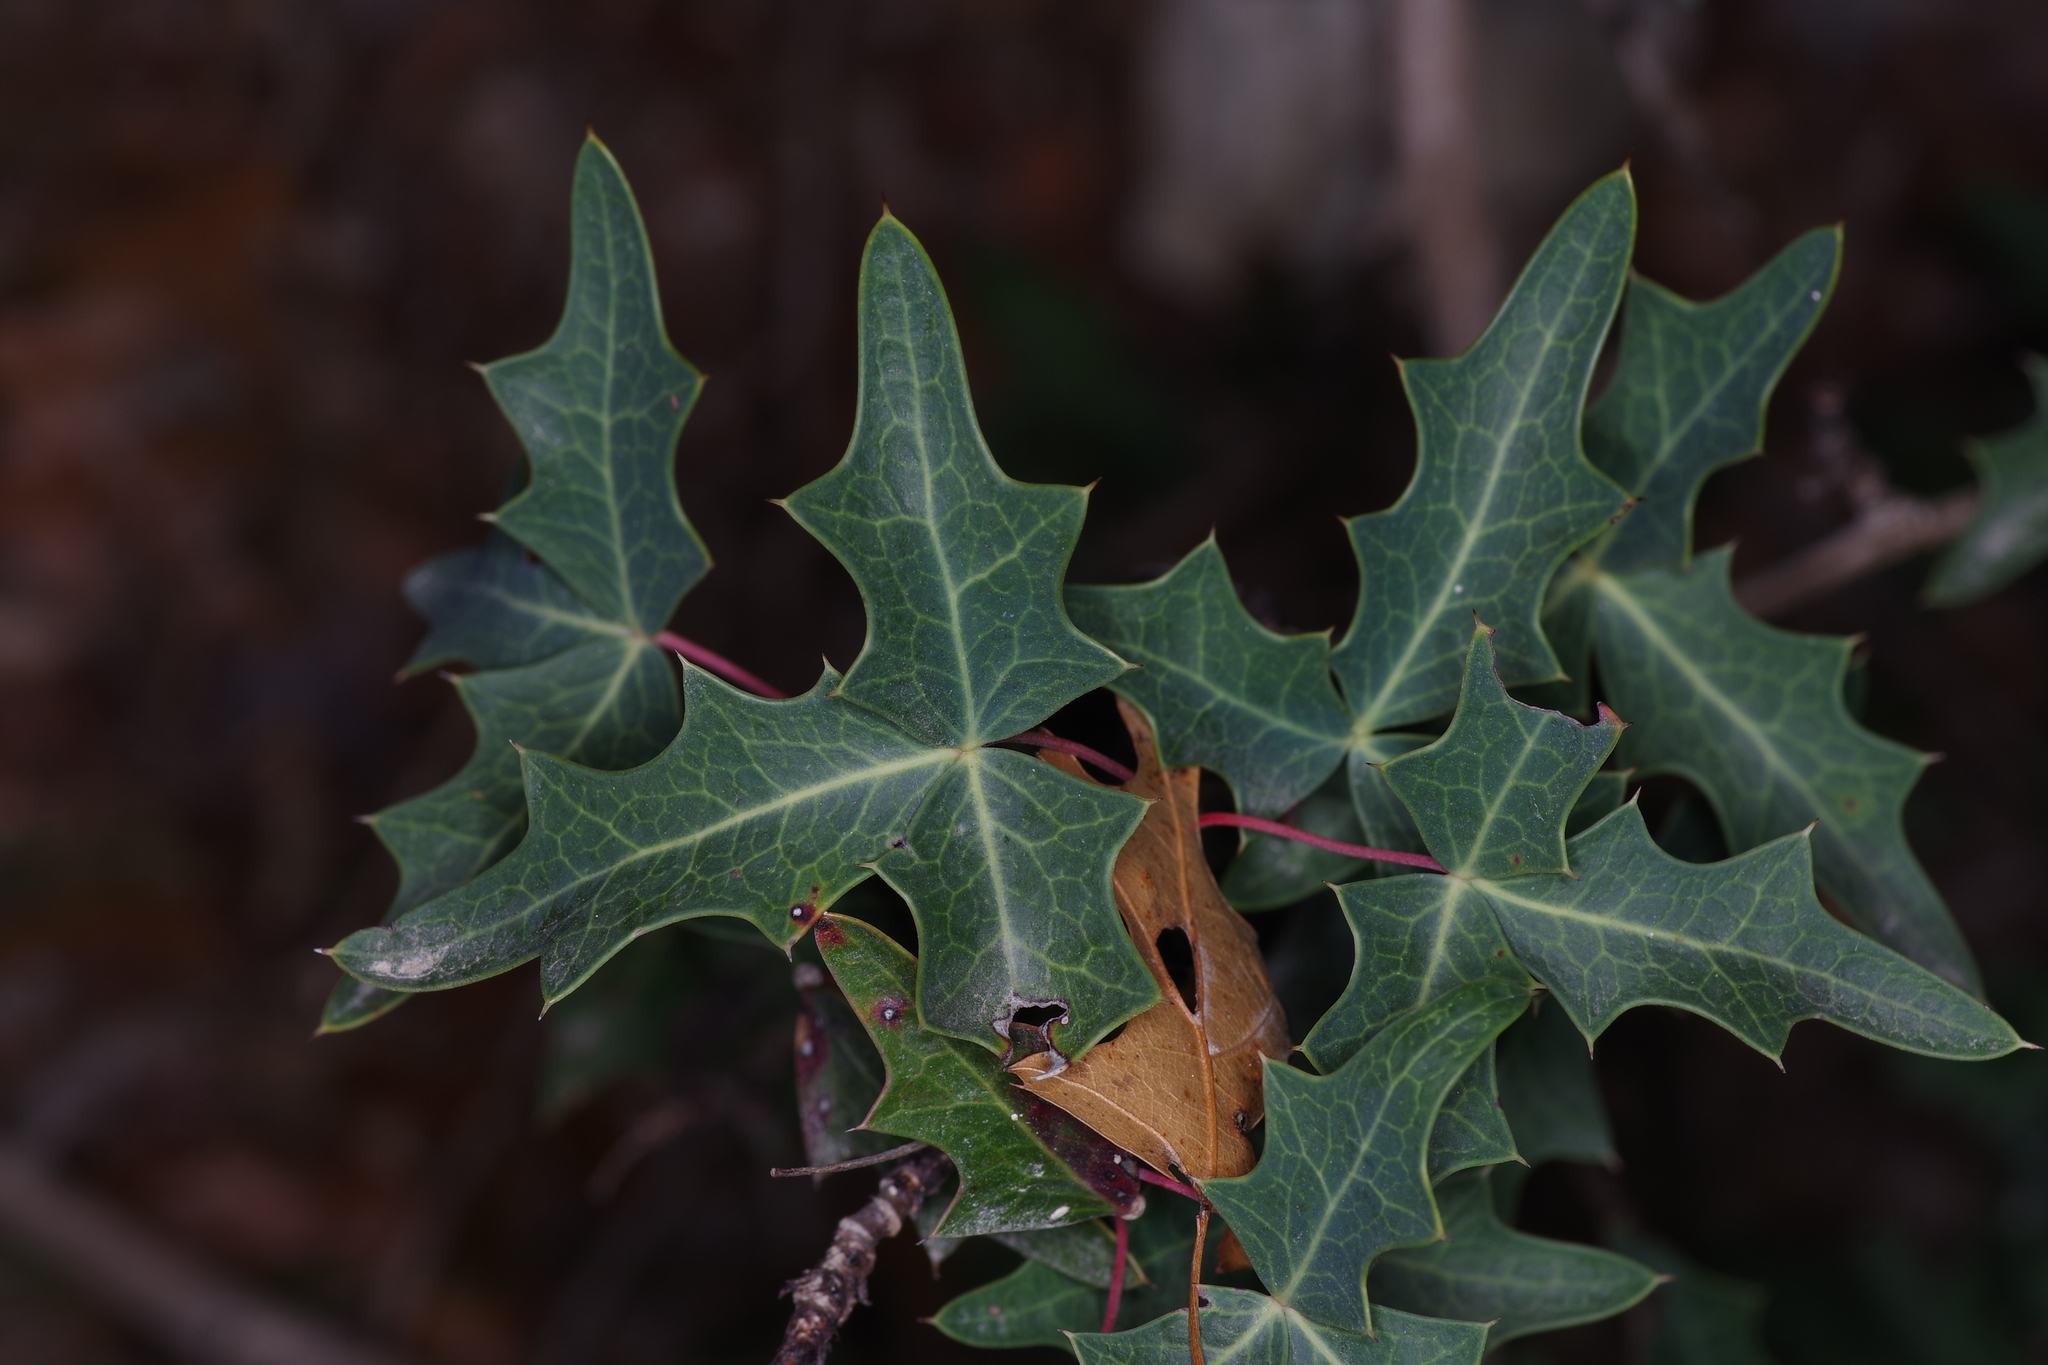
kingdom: Plantae
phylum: Tracheophyta
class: Magnoliopsida
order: Ranunculales
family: Berberidaceae
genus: Alloberberis
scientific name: Alloberberis trifoliolata
